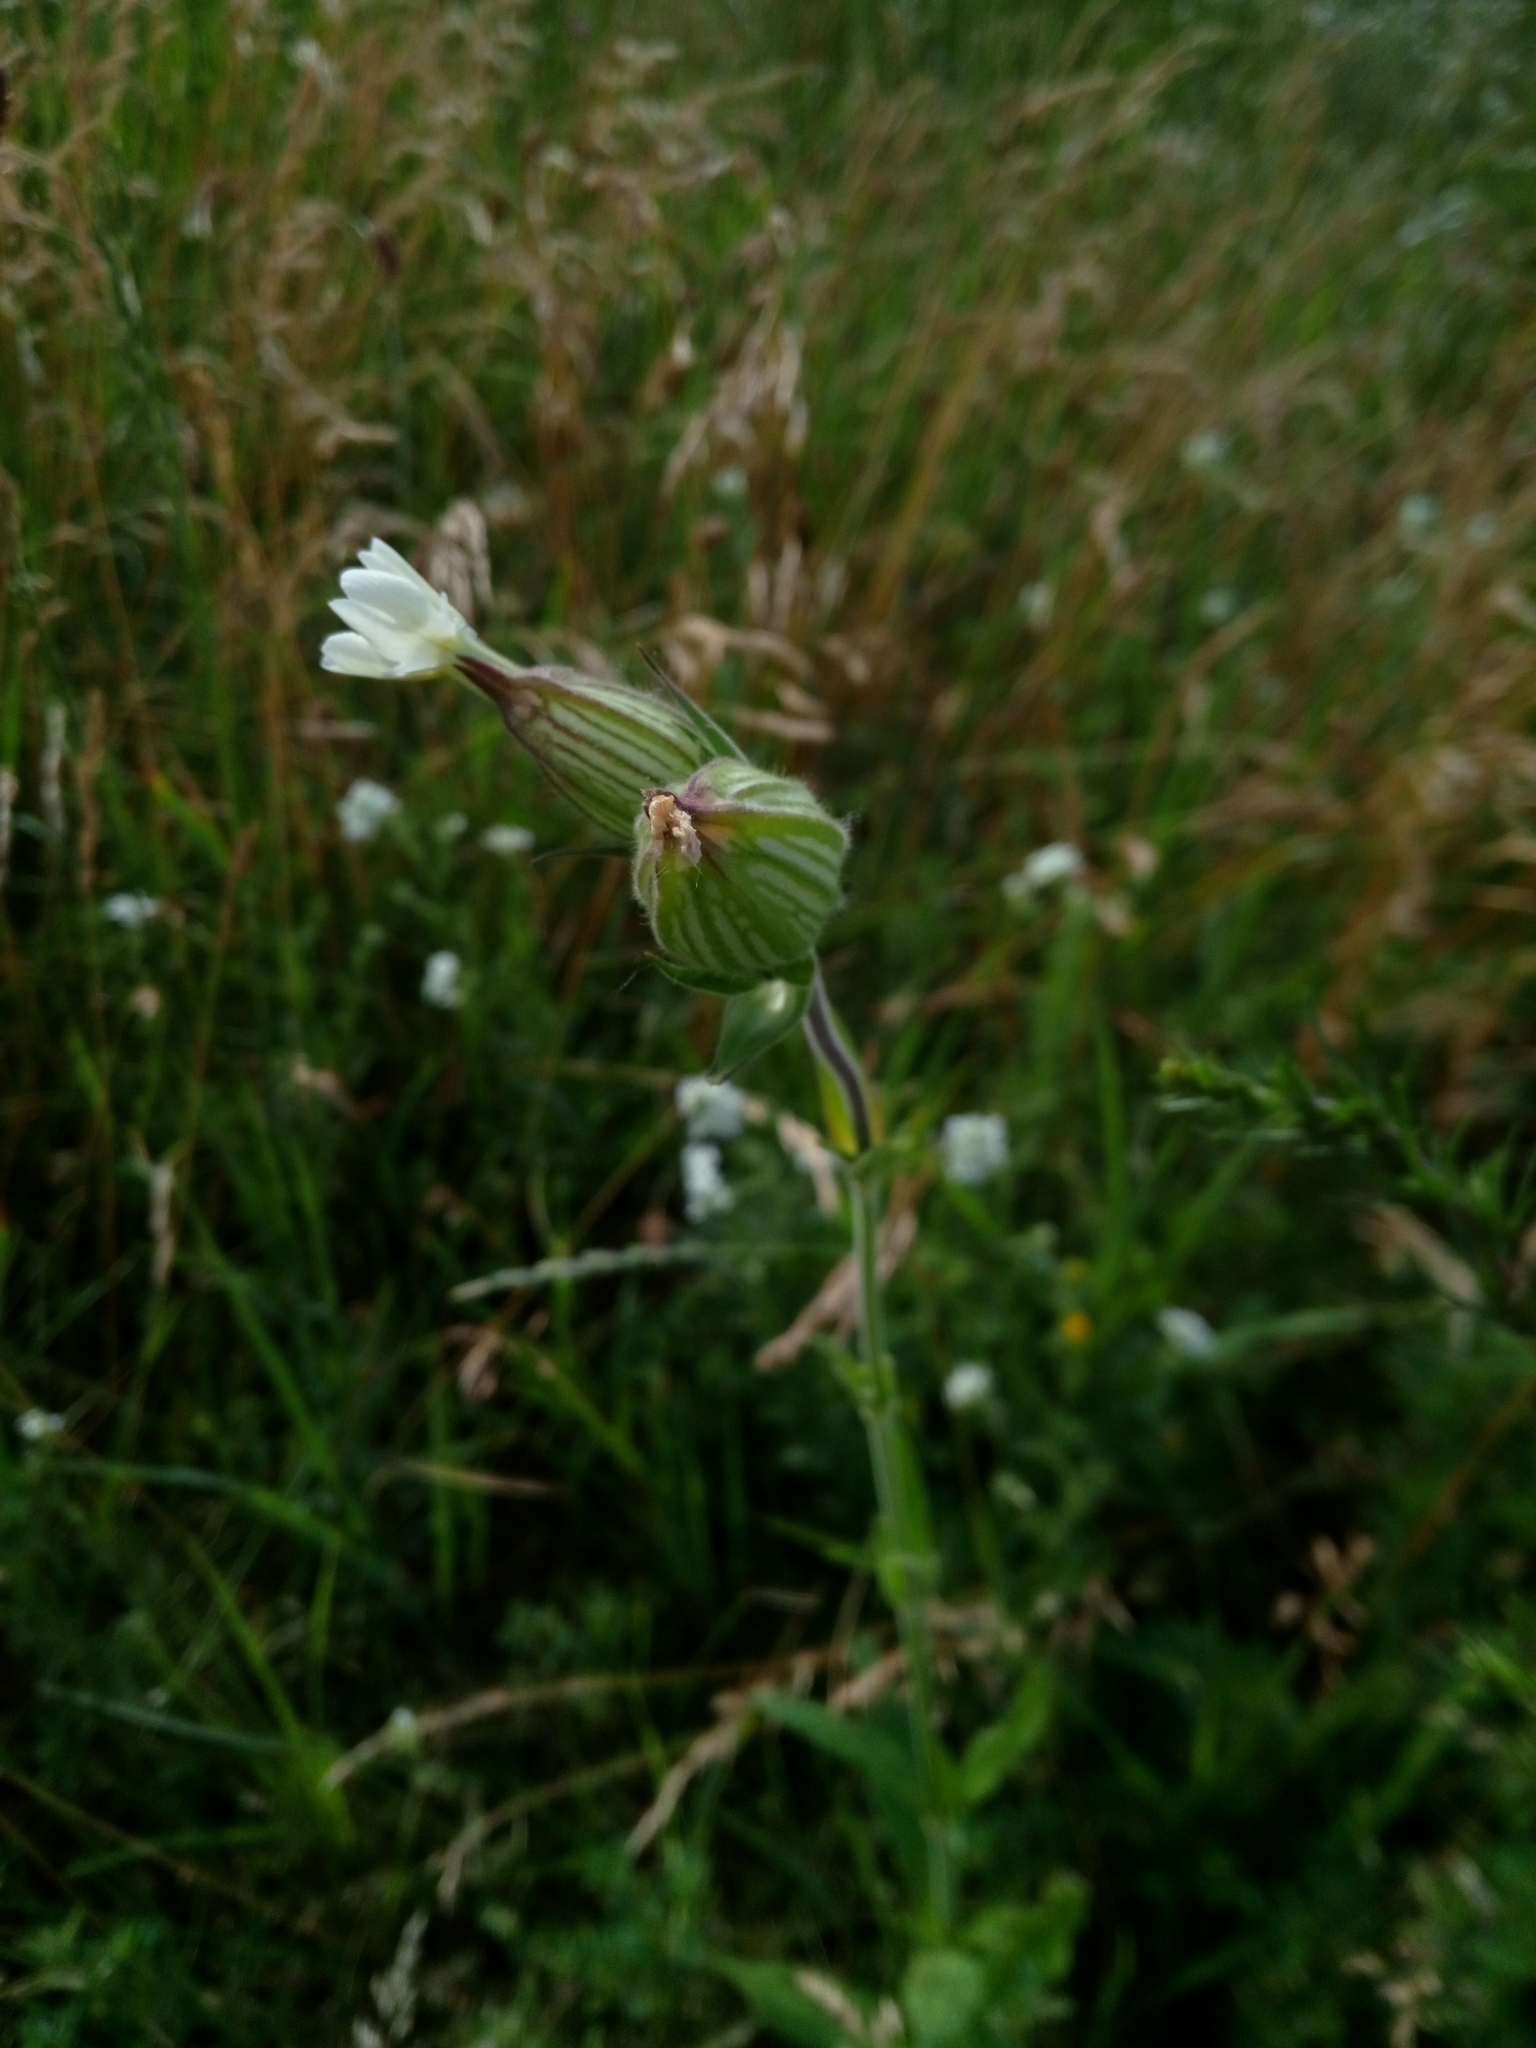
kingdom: Plantae
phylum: Tracheophyta
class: Magnoliopsida
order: Caryophyllales
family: Caryophyllaceae
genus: Silene
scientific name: Silene latifolia
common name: White campion
